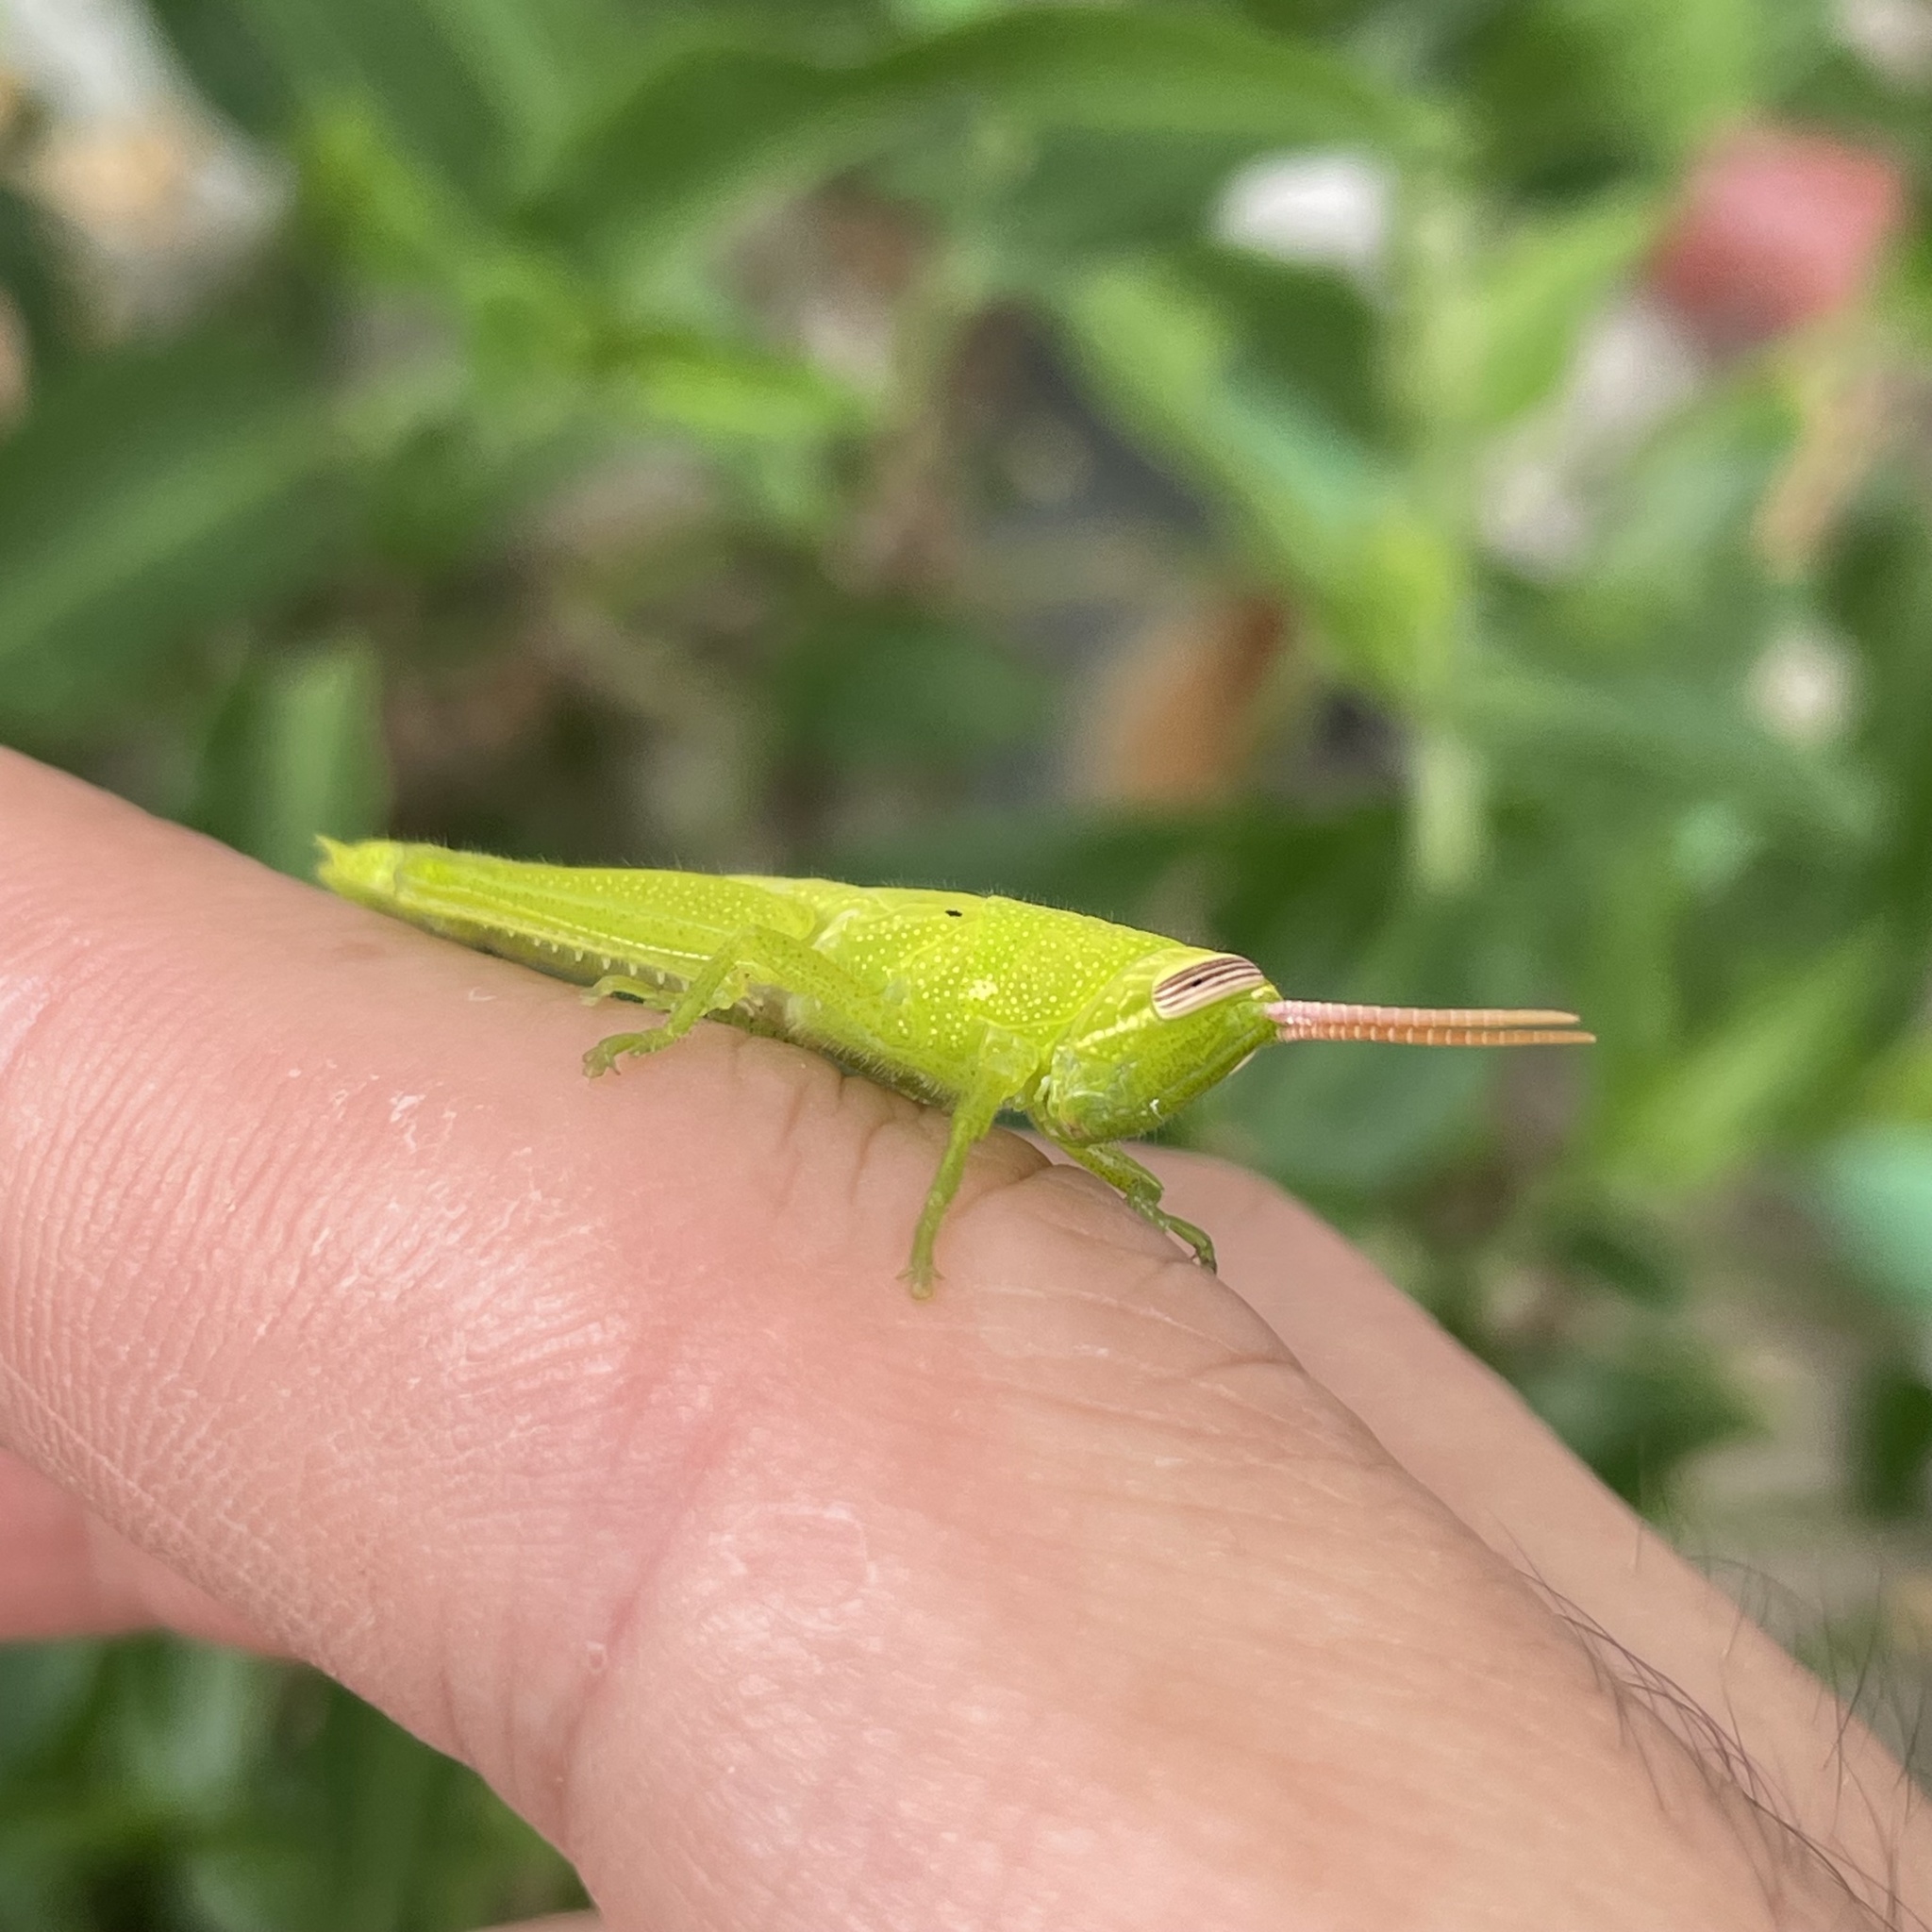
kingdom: Animalia
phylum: Arthropoda
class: Insecta
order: Orthoptera
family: Acrididae
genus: Stenocatantops
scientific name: Stenocatantops mistshenkoi
